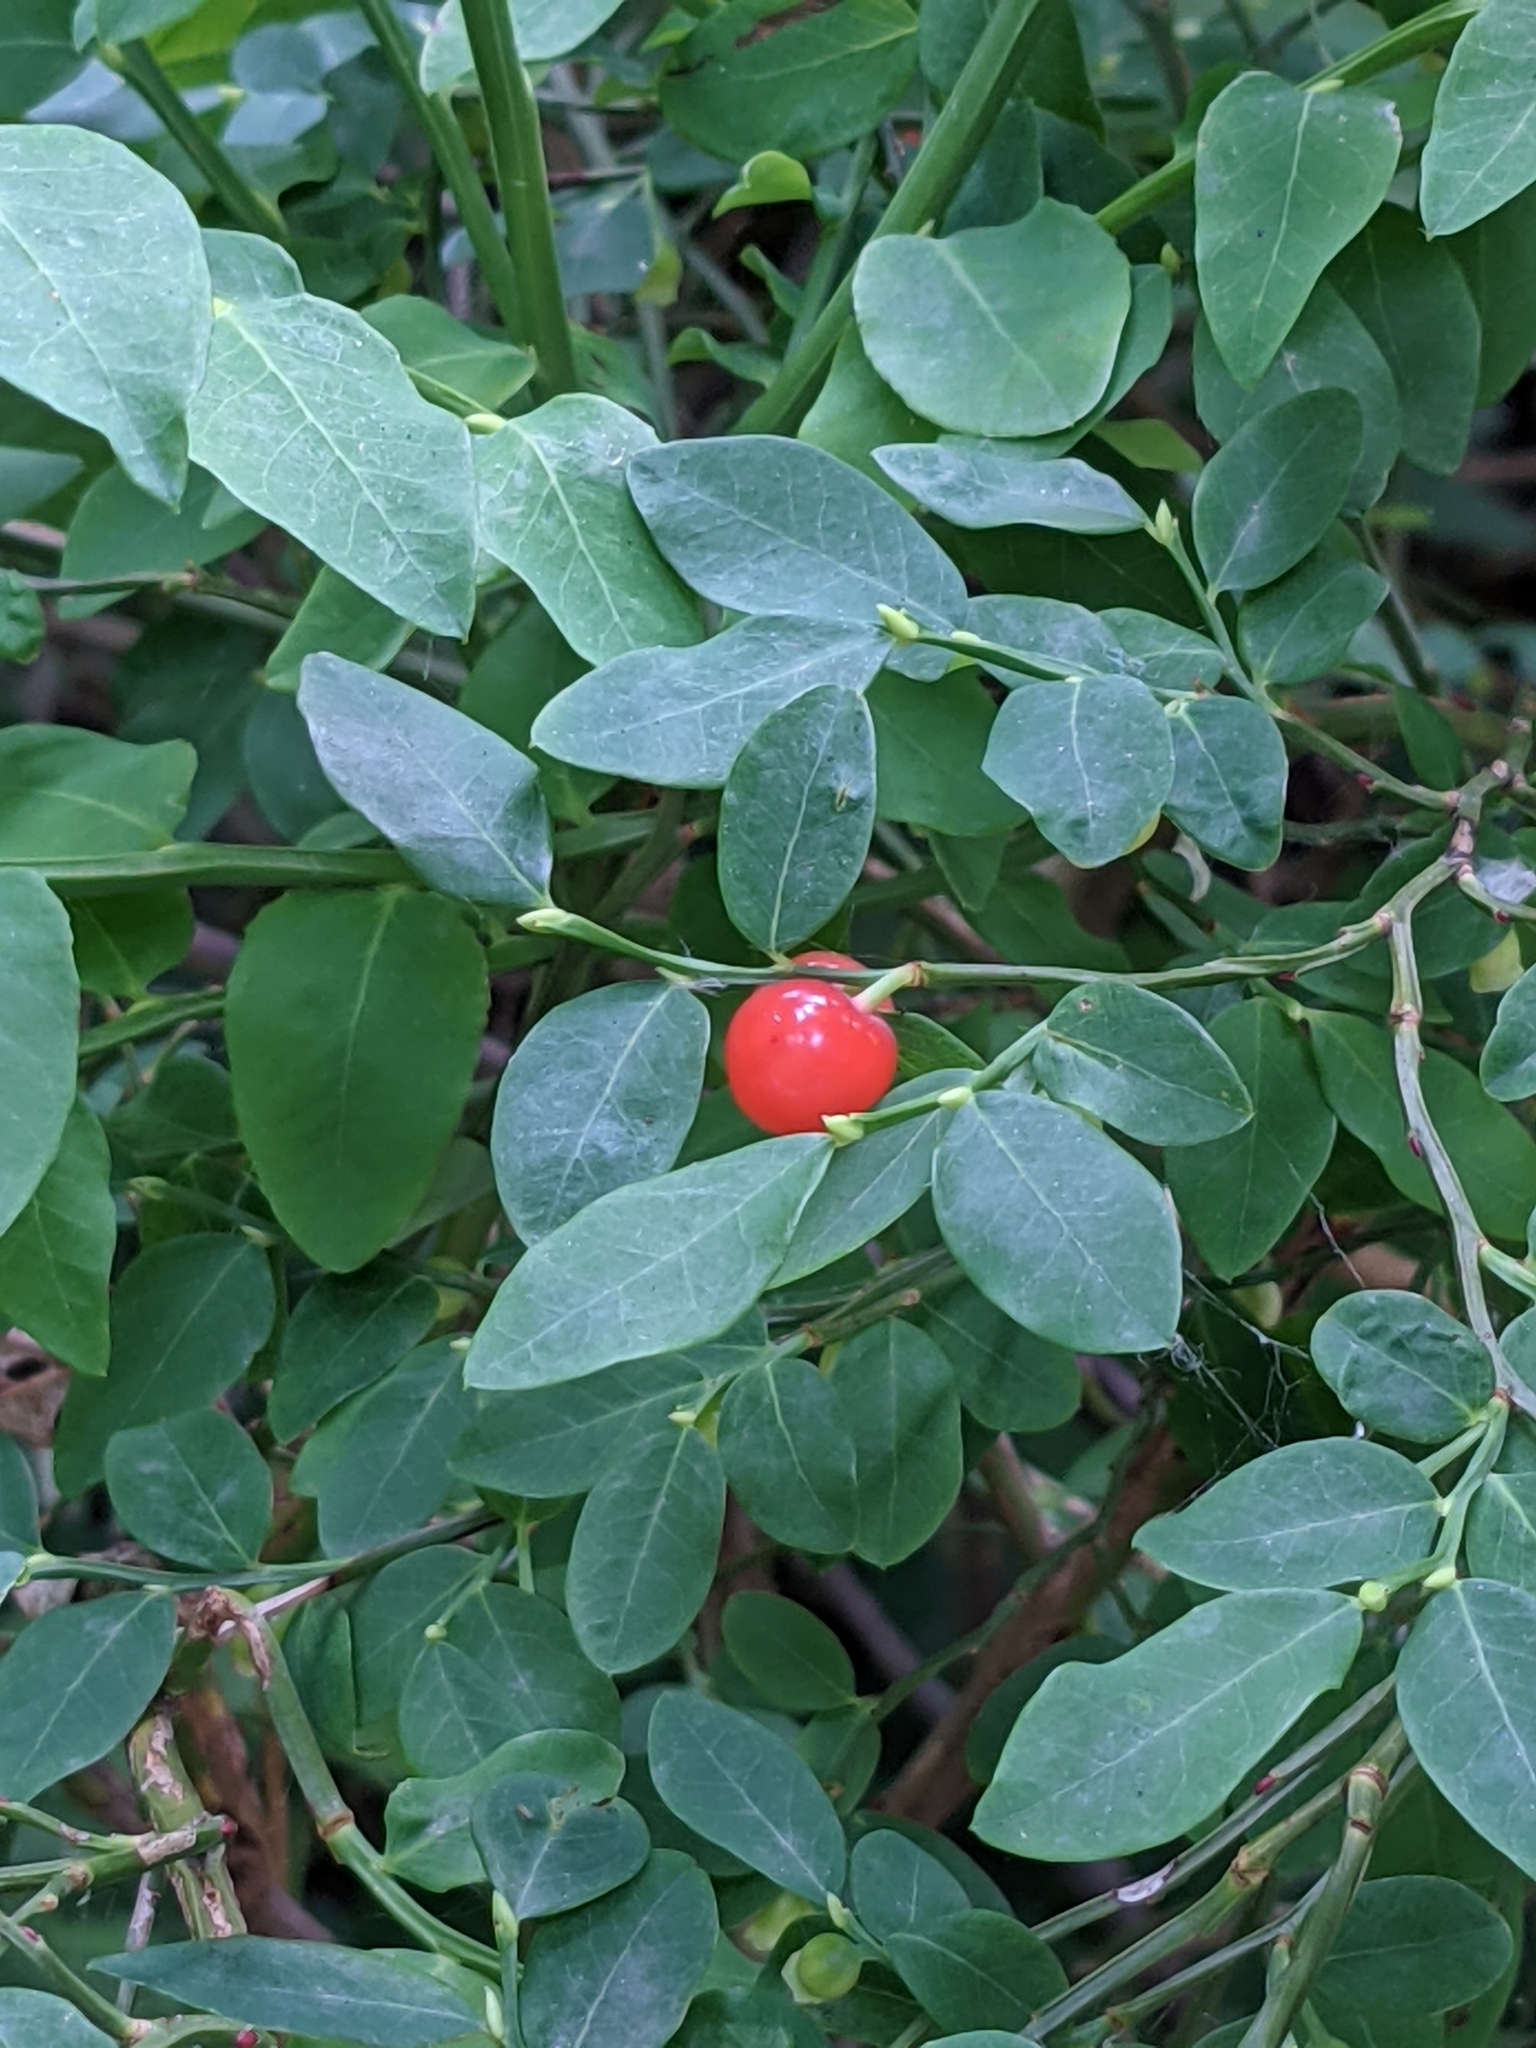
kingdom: Plantae
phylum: Tracheophyta
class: Magnoliopsida
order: Ericales
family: Ericaceae
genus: Vaccinium
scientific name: Vaccinium parvifolium
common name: Red-huckleberry
